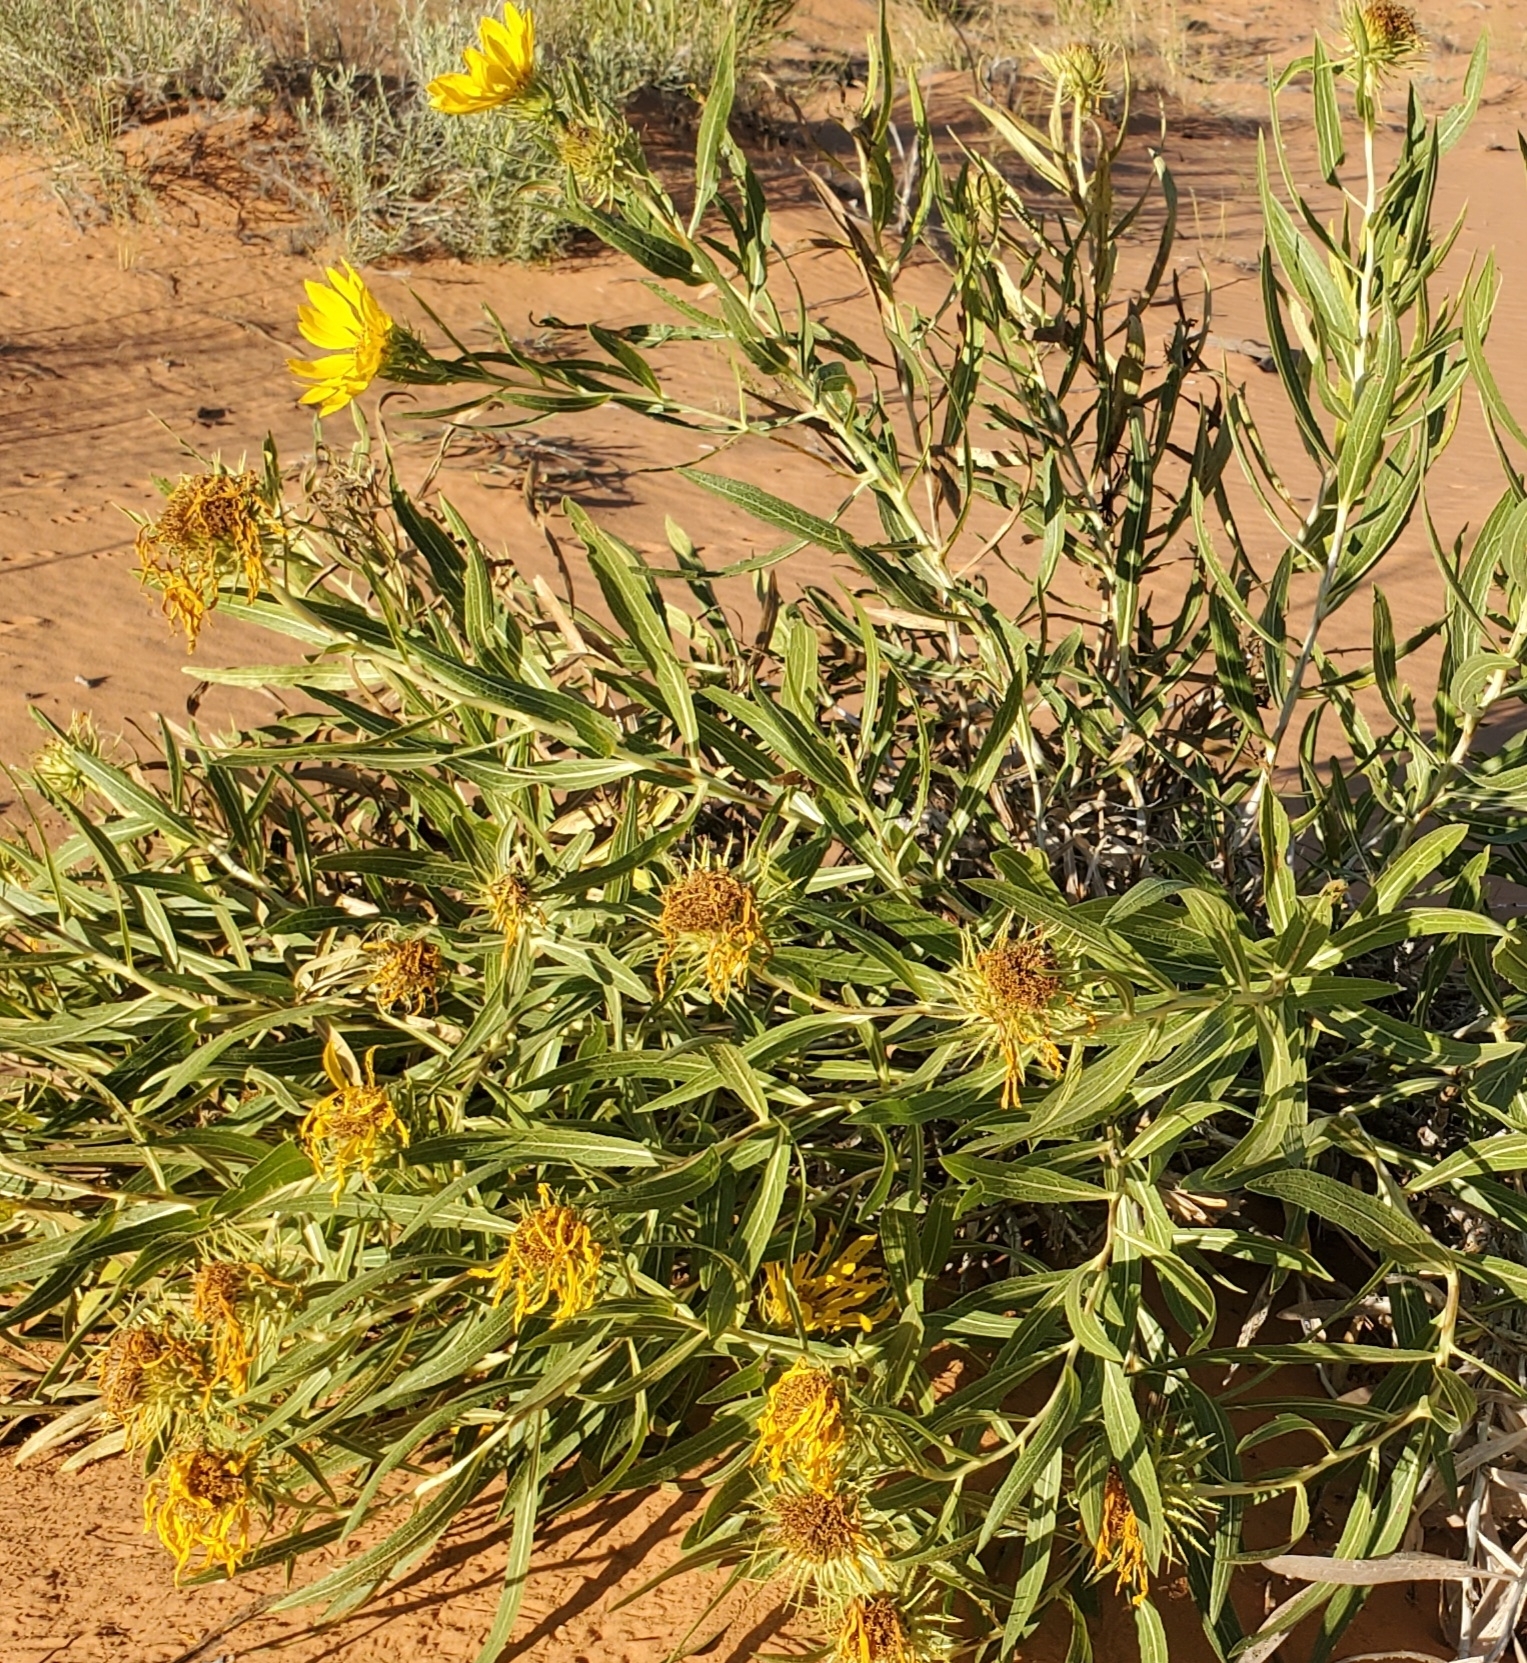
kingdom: Plantae
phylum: Tracheophyta
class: Magnoliopsida
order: Asterales
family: Asteraceae
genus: Scabrethia
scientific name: Scabrethia scabra
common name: Rough mules's-ears
